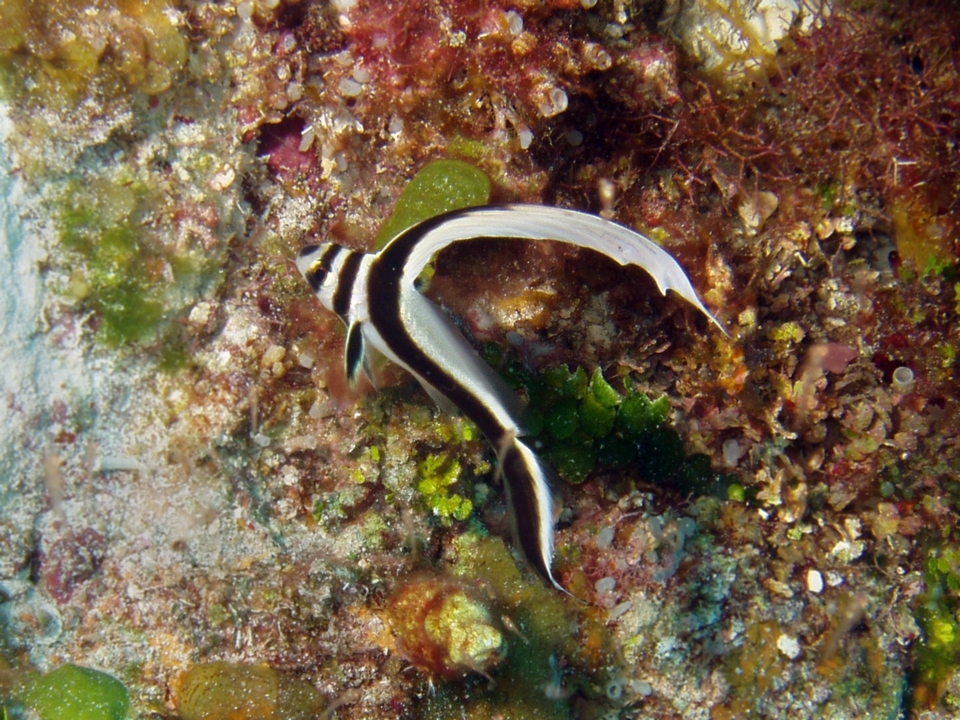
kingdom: Animalia
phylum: Chordata
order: Perciformes
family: Sciaenidae
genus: Equetus
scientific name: Equetus punctatus
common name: Spotted drum
